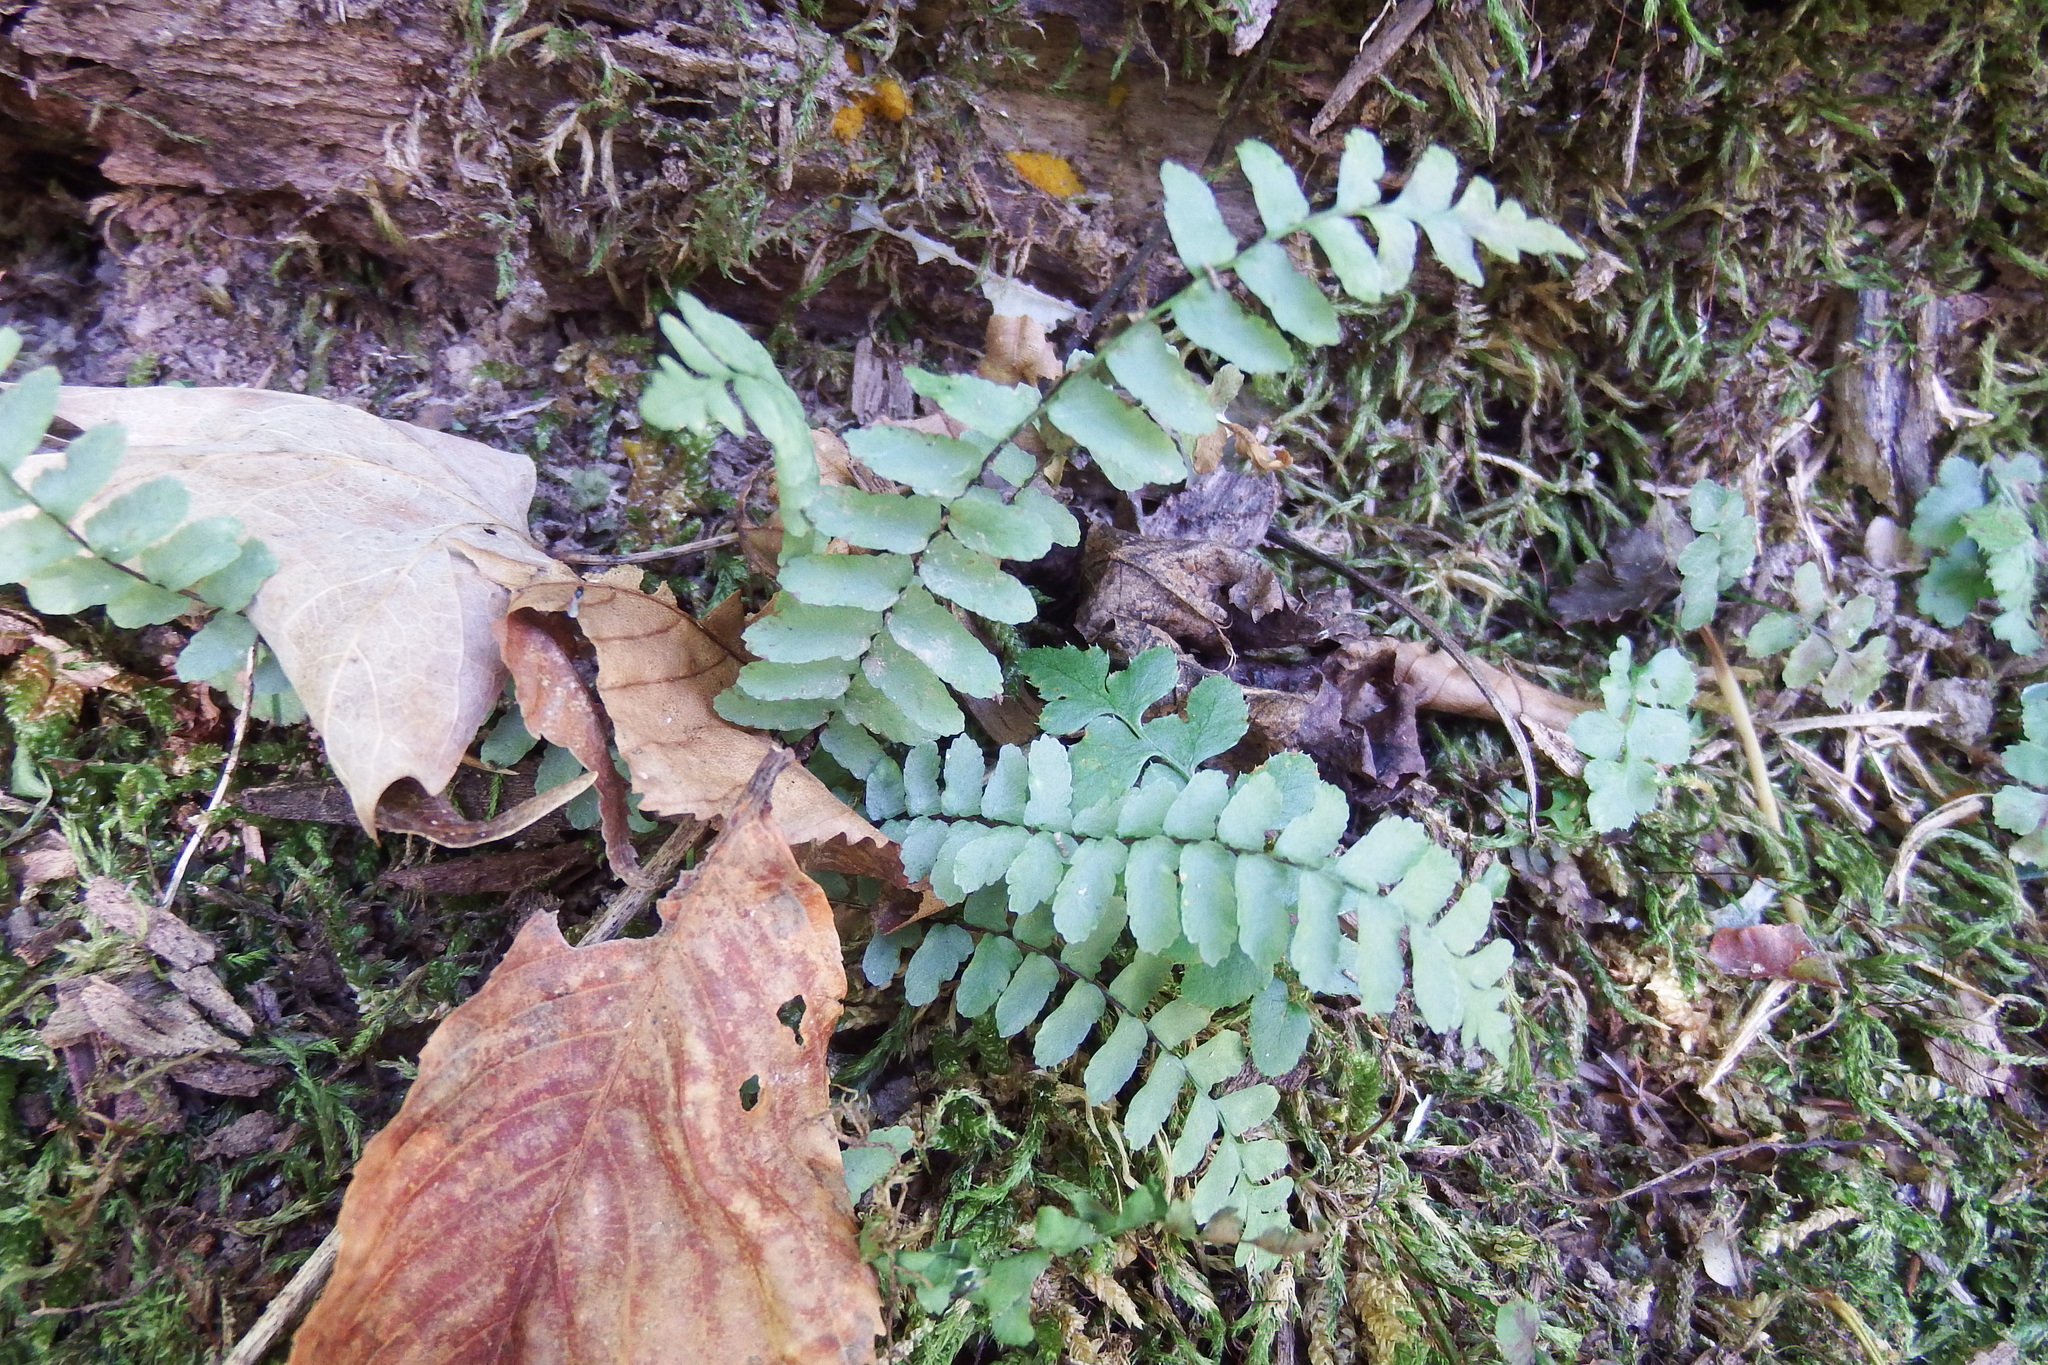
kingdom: Plantae
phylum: Tracheophyta
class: Polypodiopsida
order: Polypodiales
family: Aspleniaceae
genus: Asplenium
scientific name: Asplenium platyneuron
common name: Ebony spleenwort
